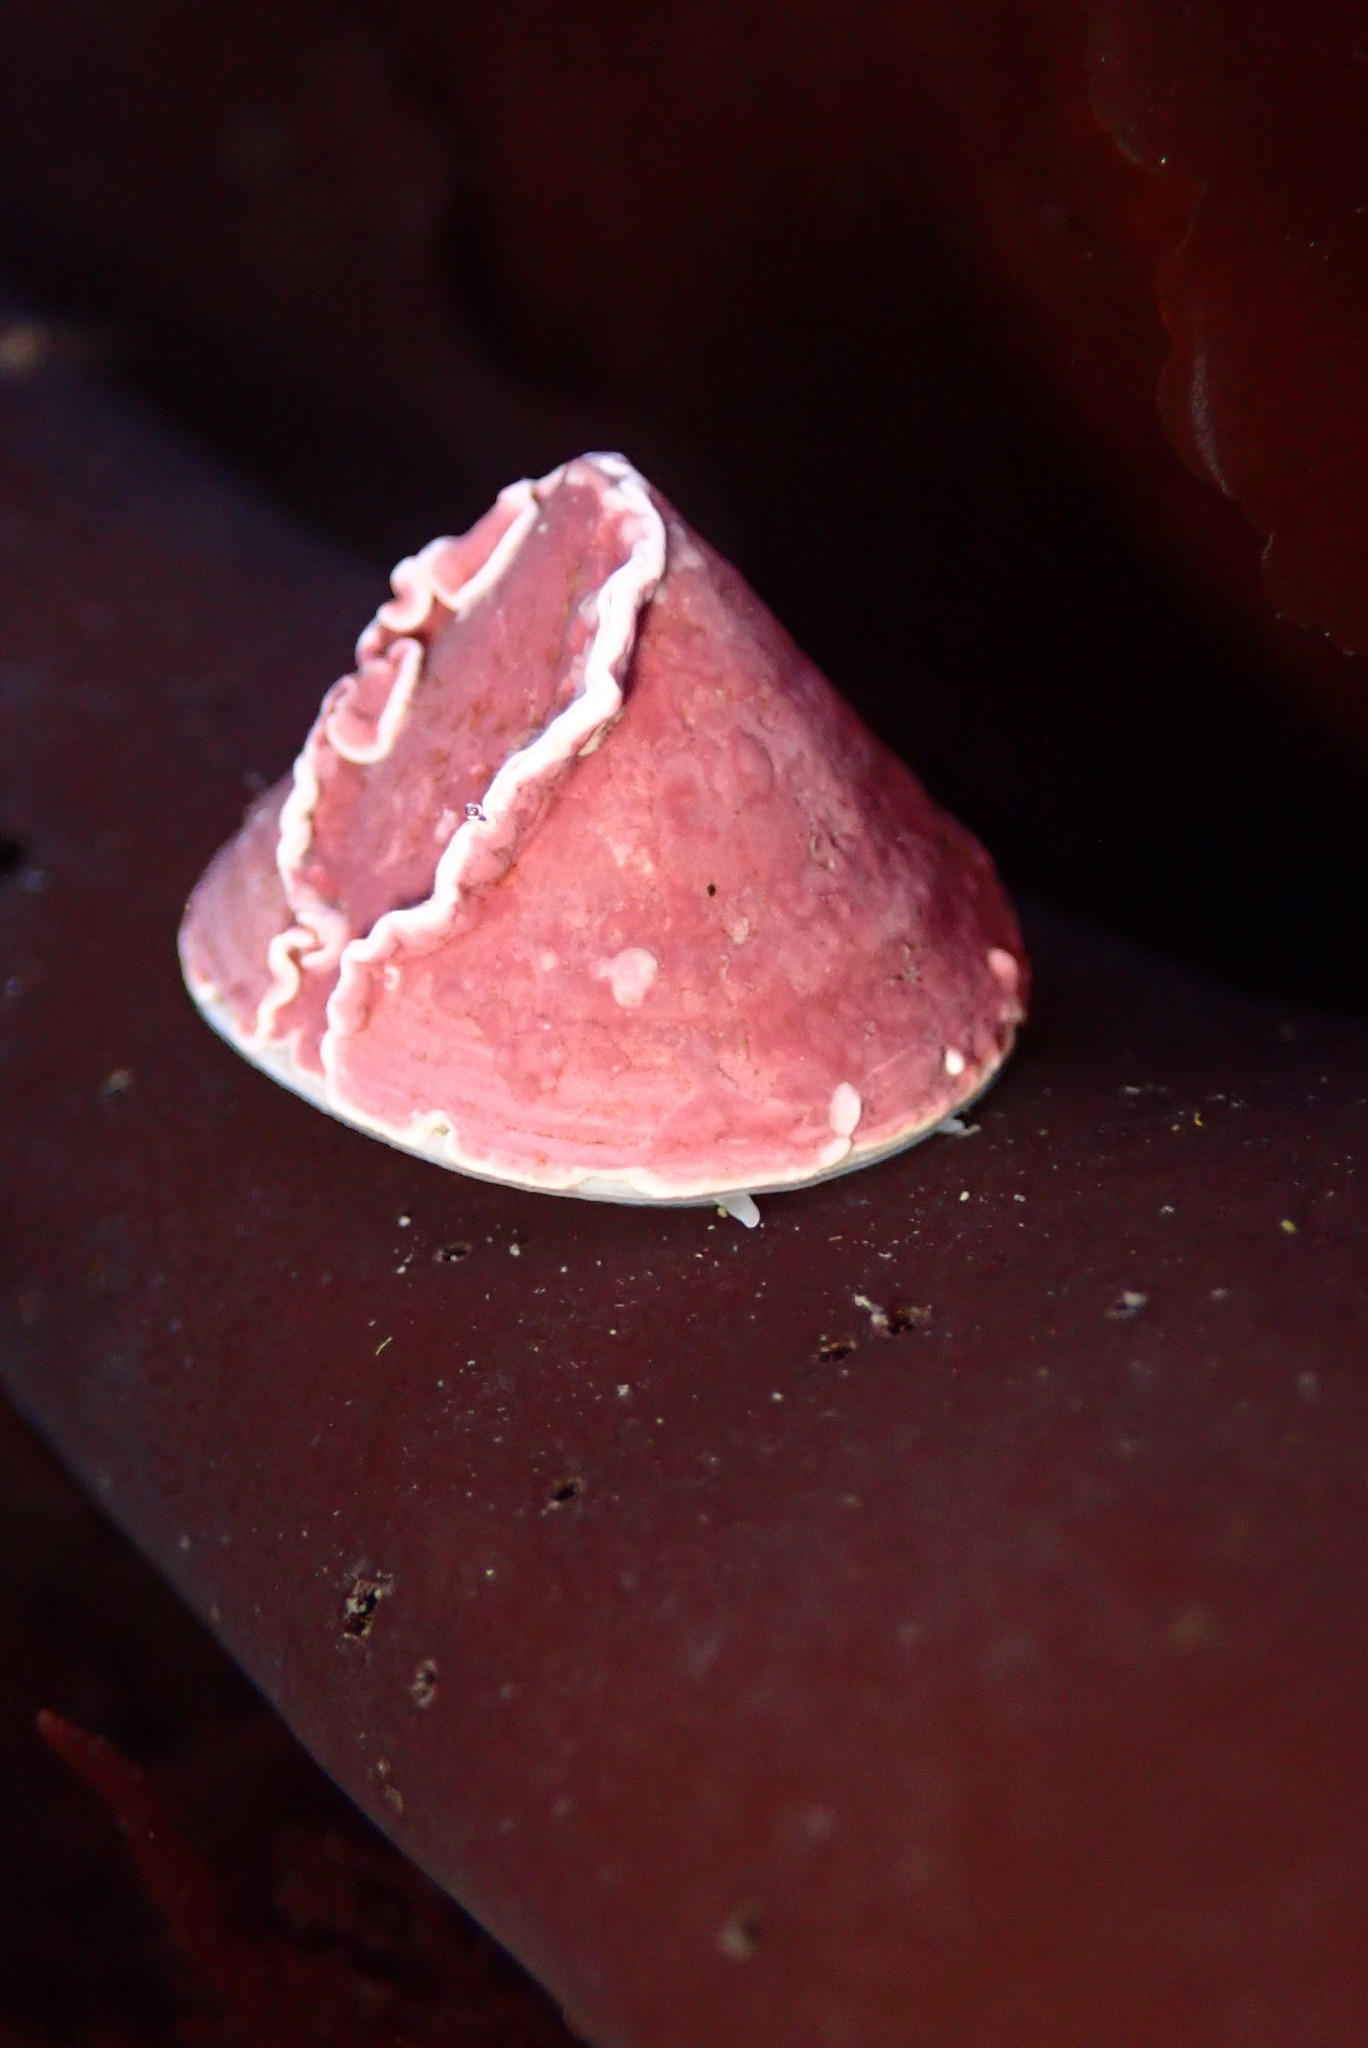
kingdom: Animalia
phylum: Mollusca
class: Gastropoda
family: Acmaeidae
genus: Acmaea
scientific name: Acmaea mitra
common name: Pacific white cap limpet
